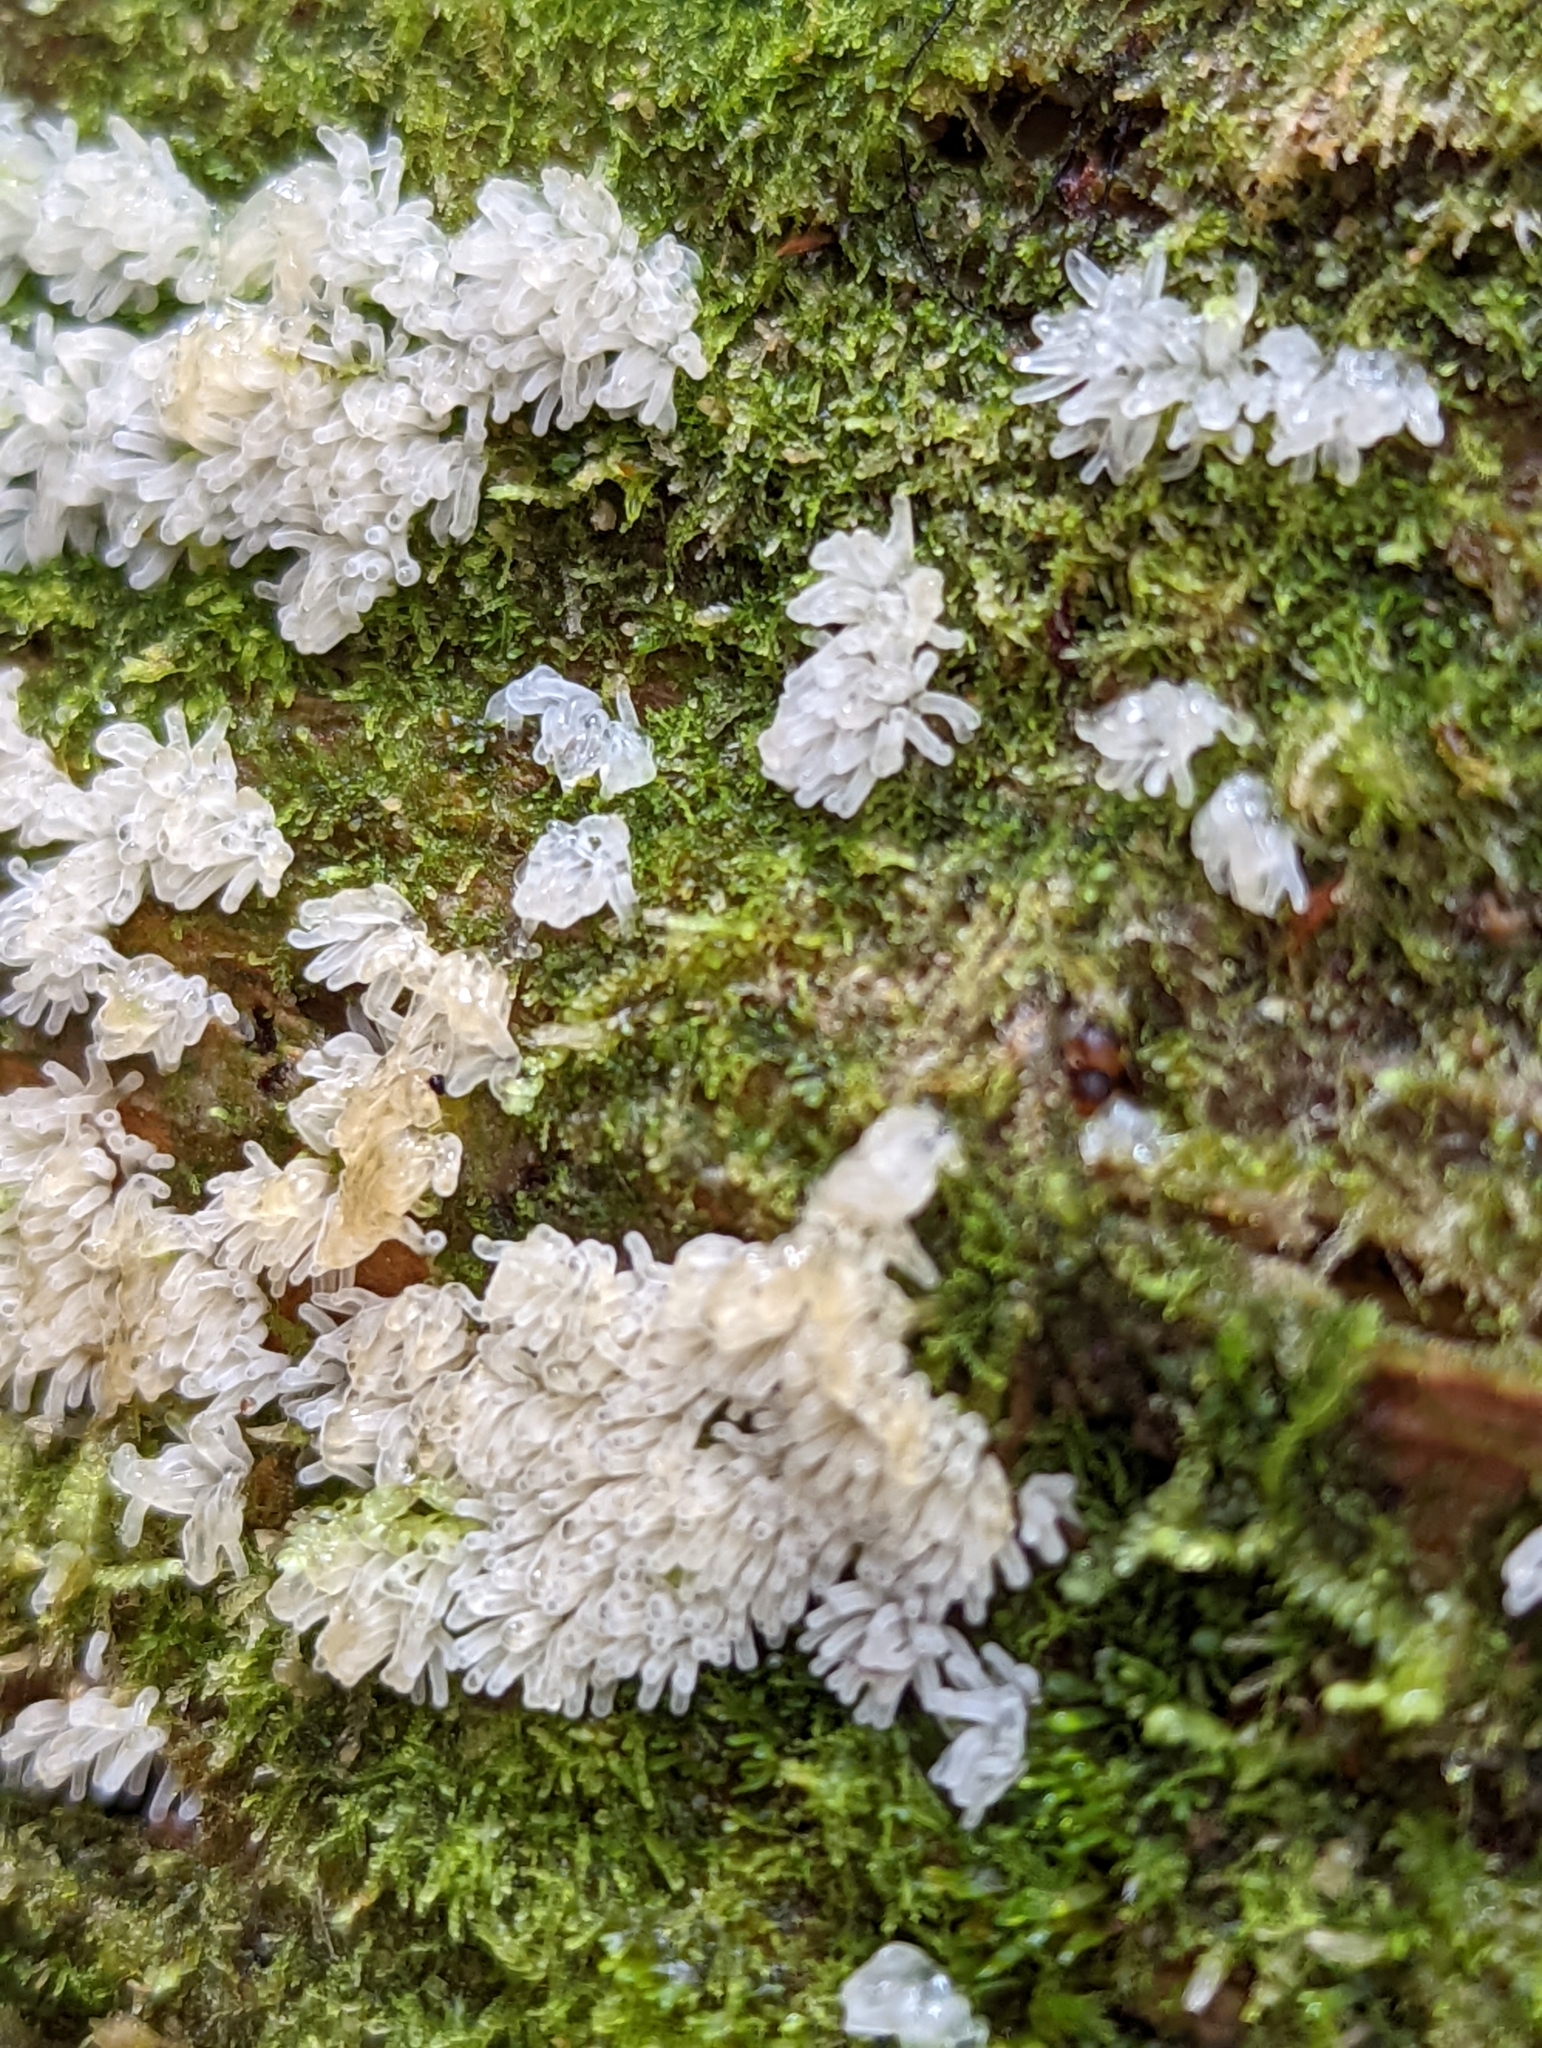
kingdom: Protozoa
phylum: Mycetozoa
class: Protosteliomycetes
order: Ceratiomyxales
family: Ceratiomyxaceae
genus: Ceratiomyxa
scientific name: Ceratiomyxa fruticulosa
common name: Honeycomb coral slime mold
